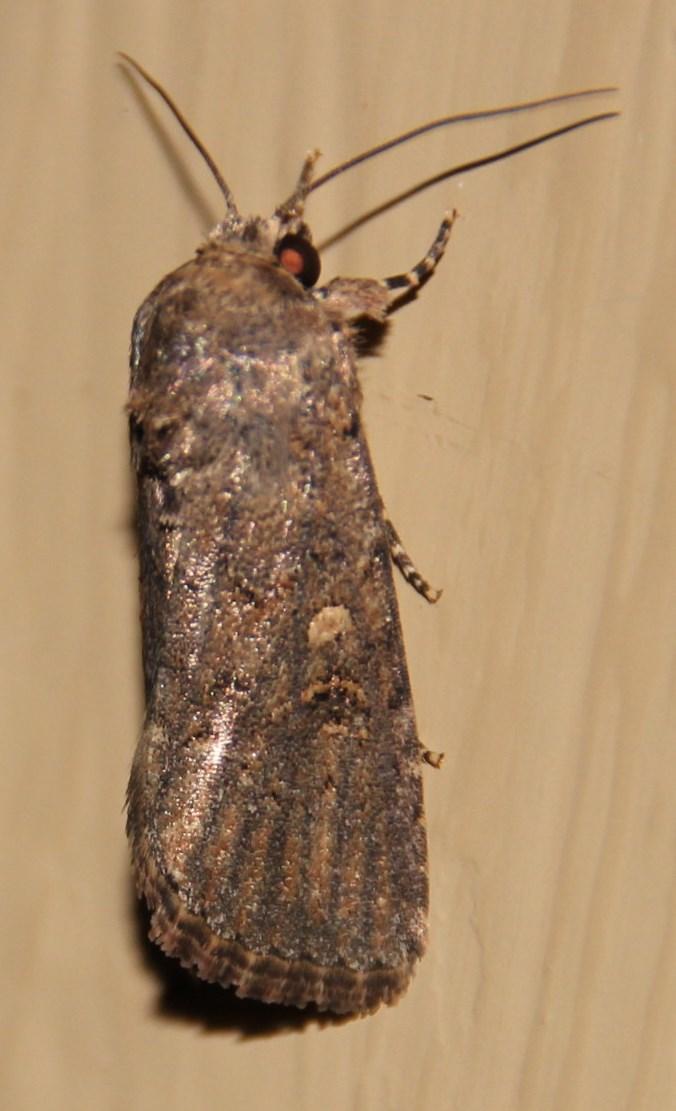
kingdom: Animalia
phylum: Arthropoda
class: Insecta
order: Lepidoptera
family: Noctuidae
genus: Spodoptera
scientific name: Spodoptera cilium
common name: Dark mottled willow
